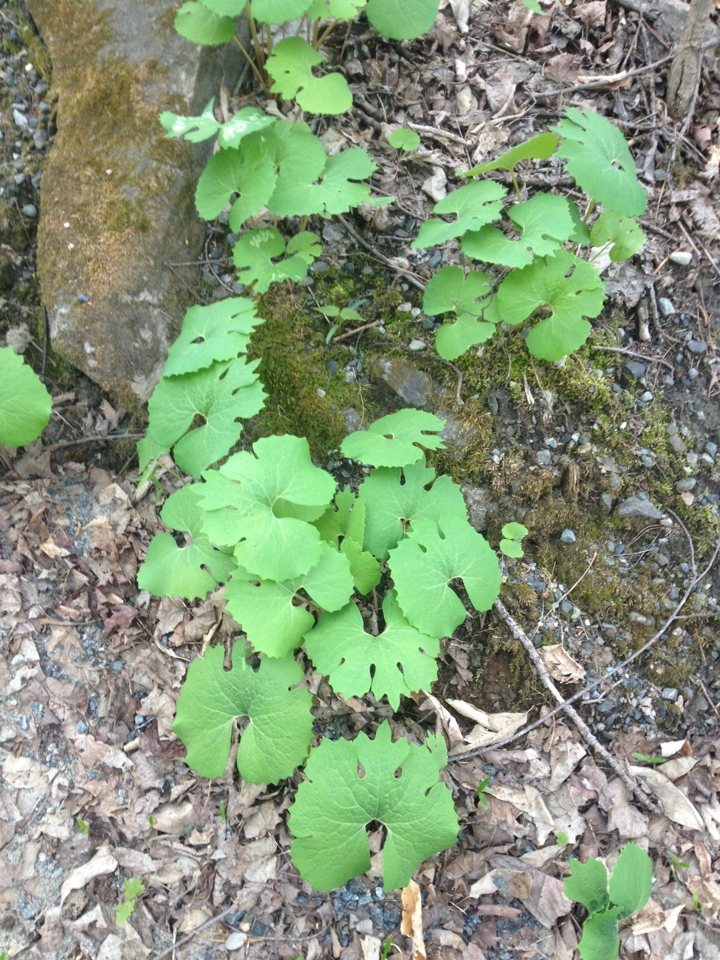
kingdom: Plantae
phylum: Tracheophyta
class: Magnoliopsida
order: Ranunculales
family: Papaveraceae
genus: Sanguinaria
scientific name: Sanguinaria canadensis
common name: Bloodroot
